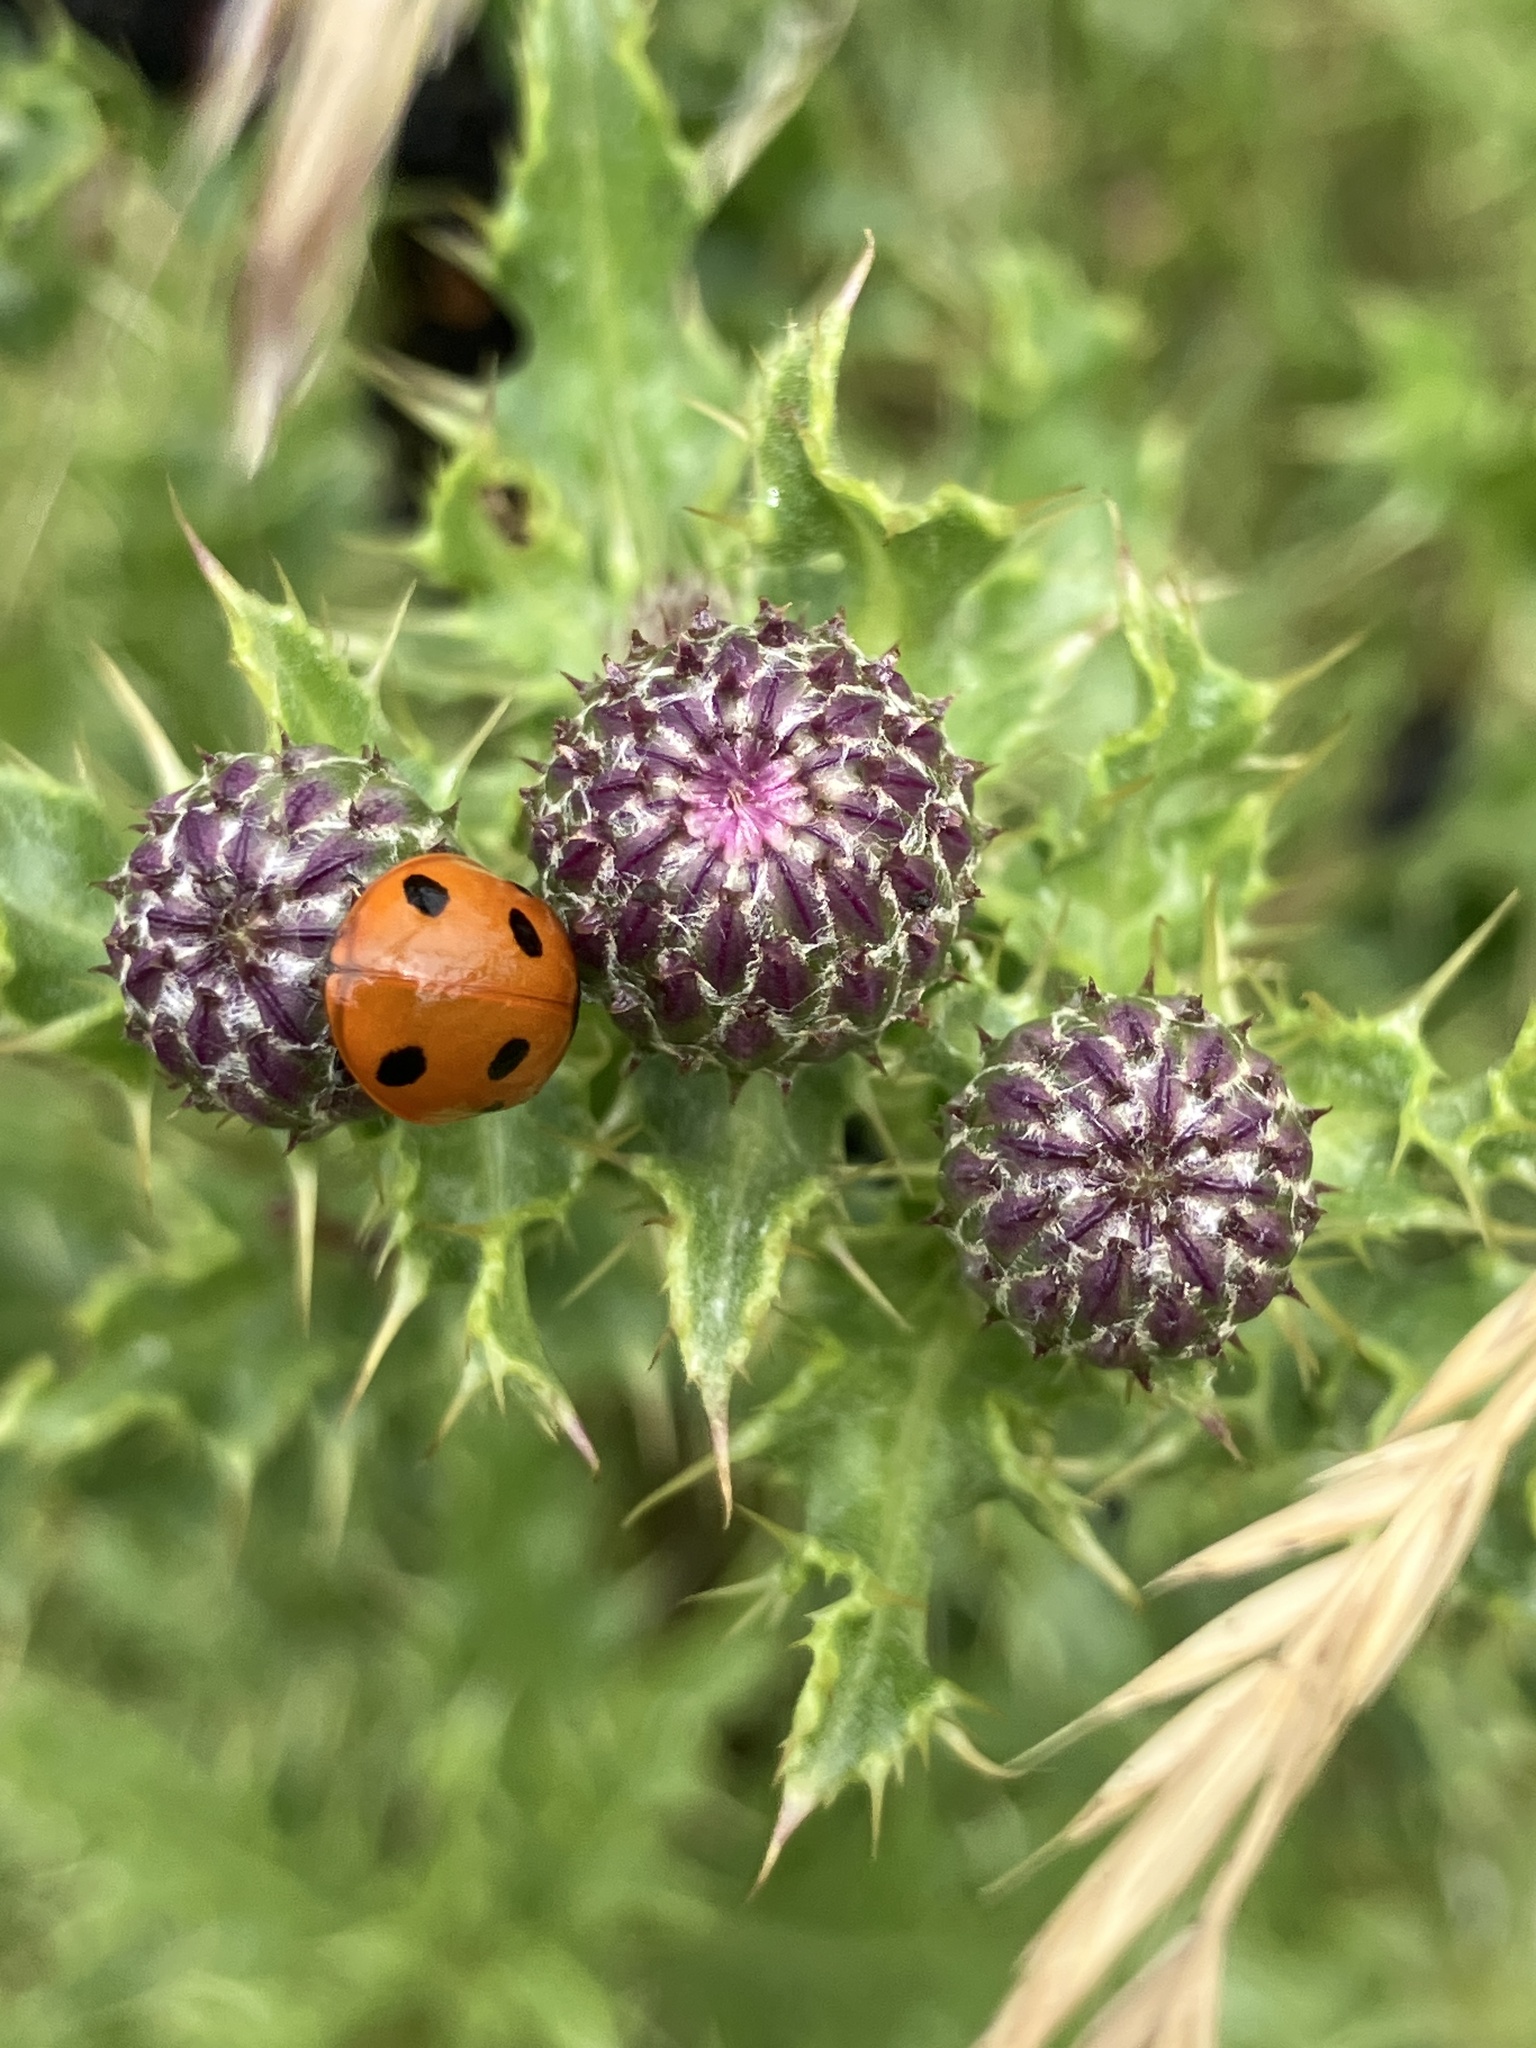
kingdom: Animalia
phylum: Arthropoda
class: Insecta
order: Coleoptera
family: Coccinellidae
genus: Coccinella
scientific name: Coccinella septempunctata
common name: Sevenspotted lady beetle
